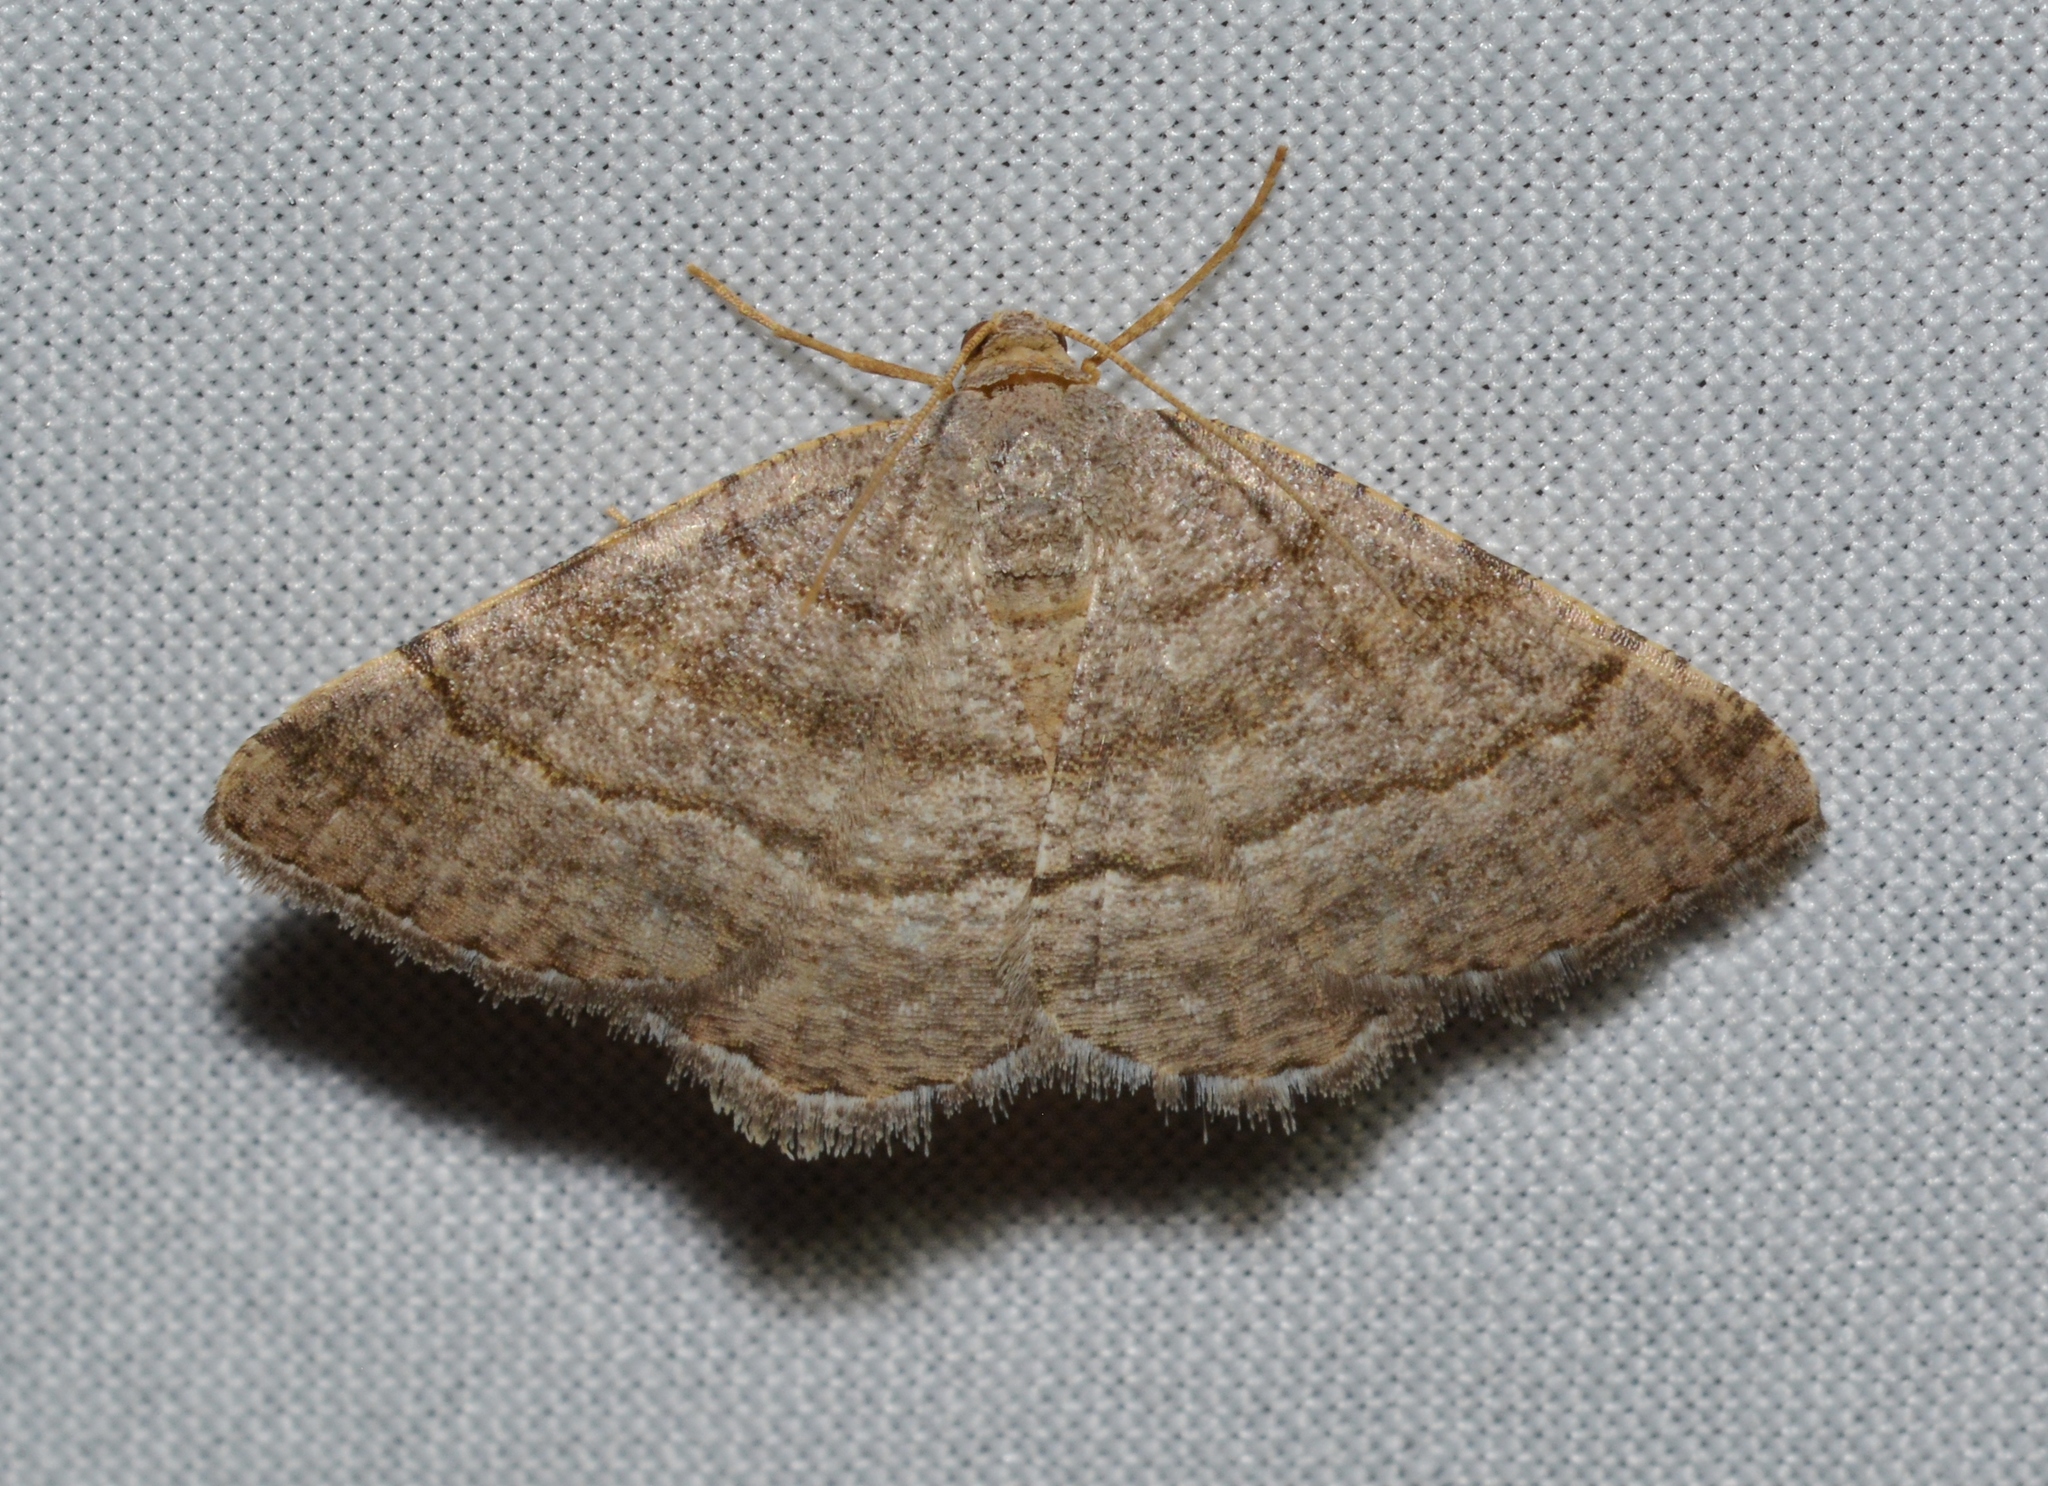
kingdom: Animalia
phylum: Arthropoda
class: Insecta
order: Lepidoptera
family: Geometridae
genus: Digrammia
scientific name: Digrammia ordinata
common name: Amorpha angle
